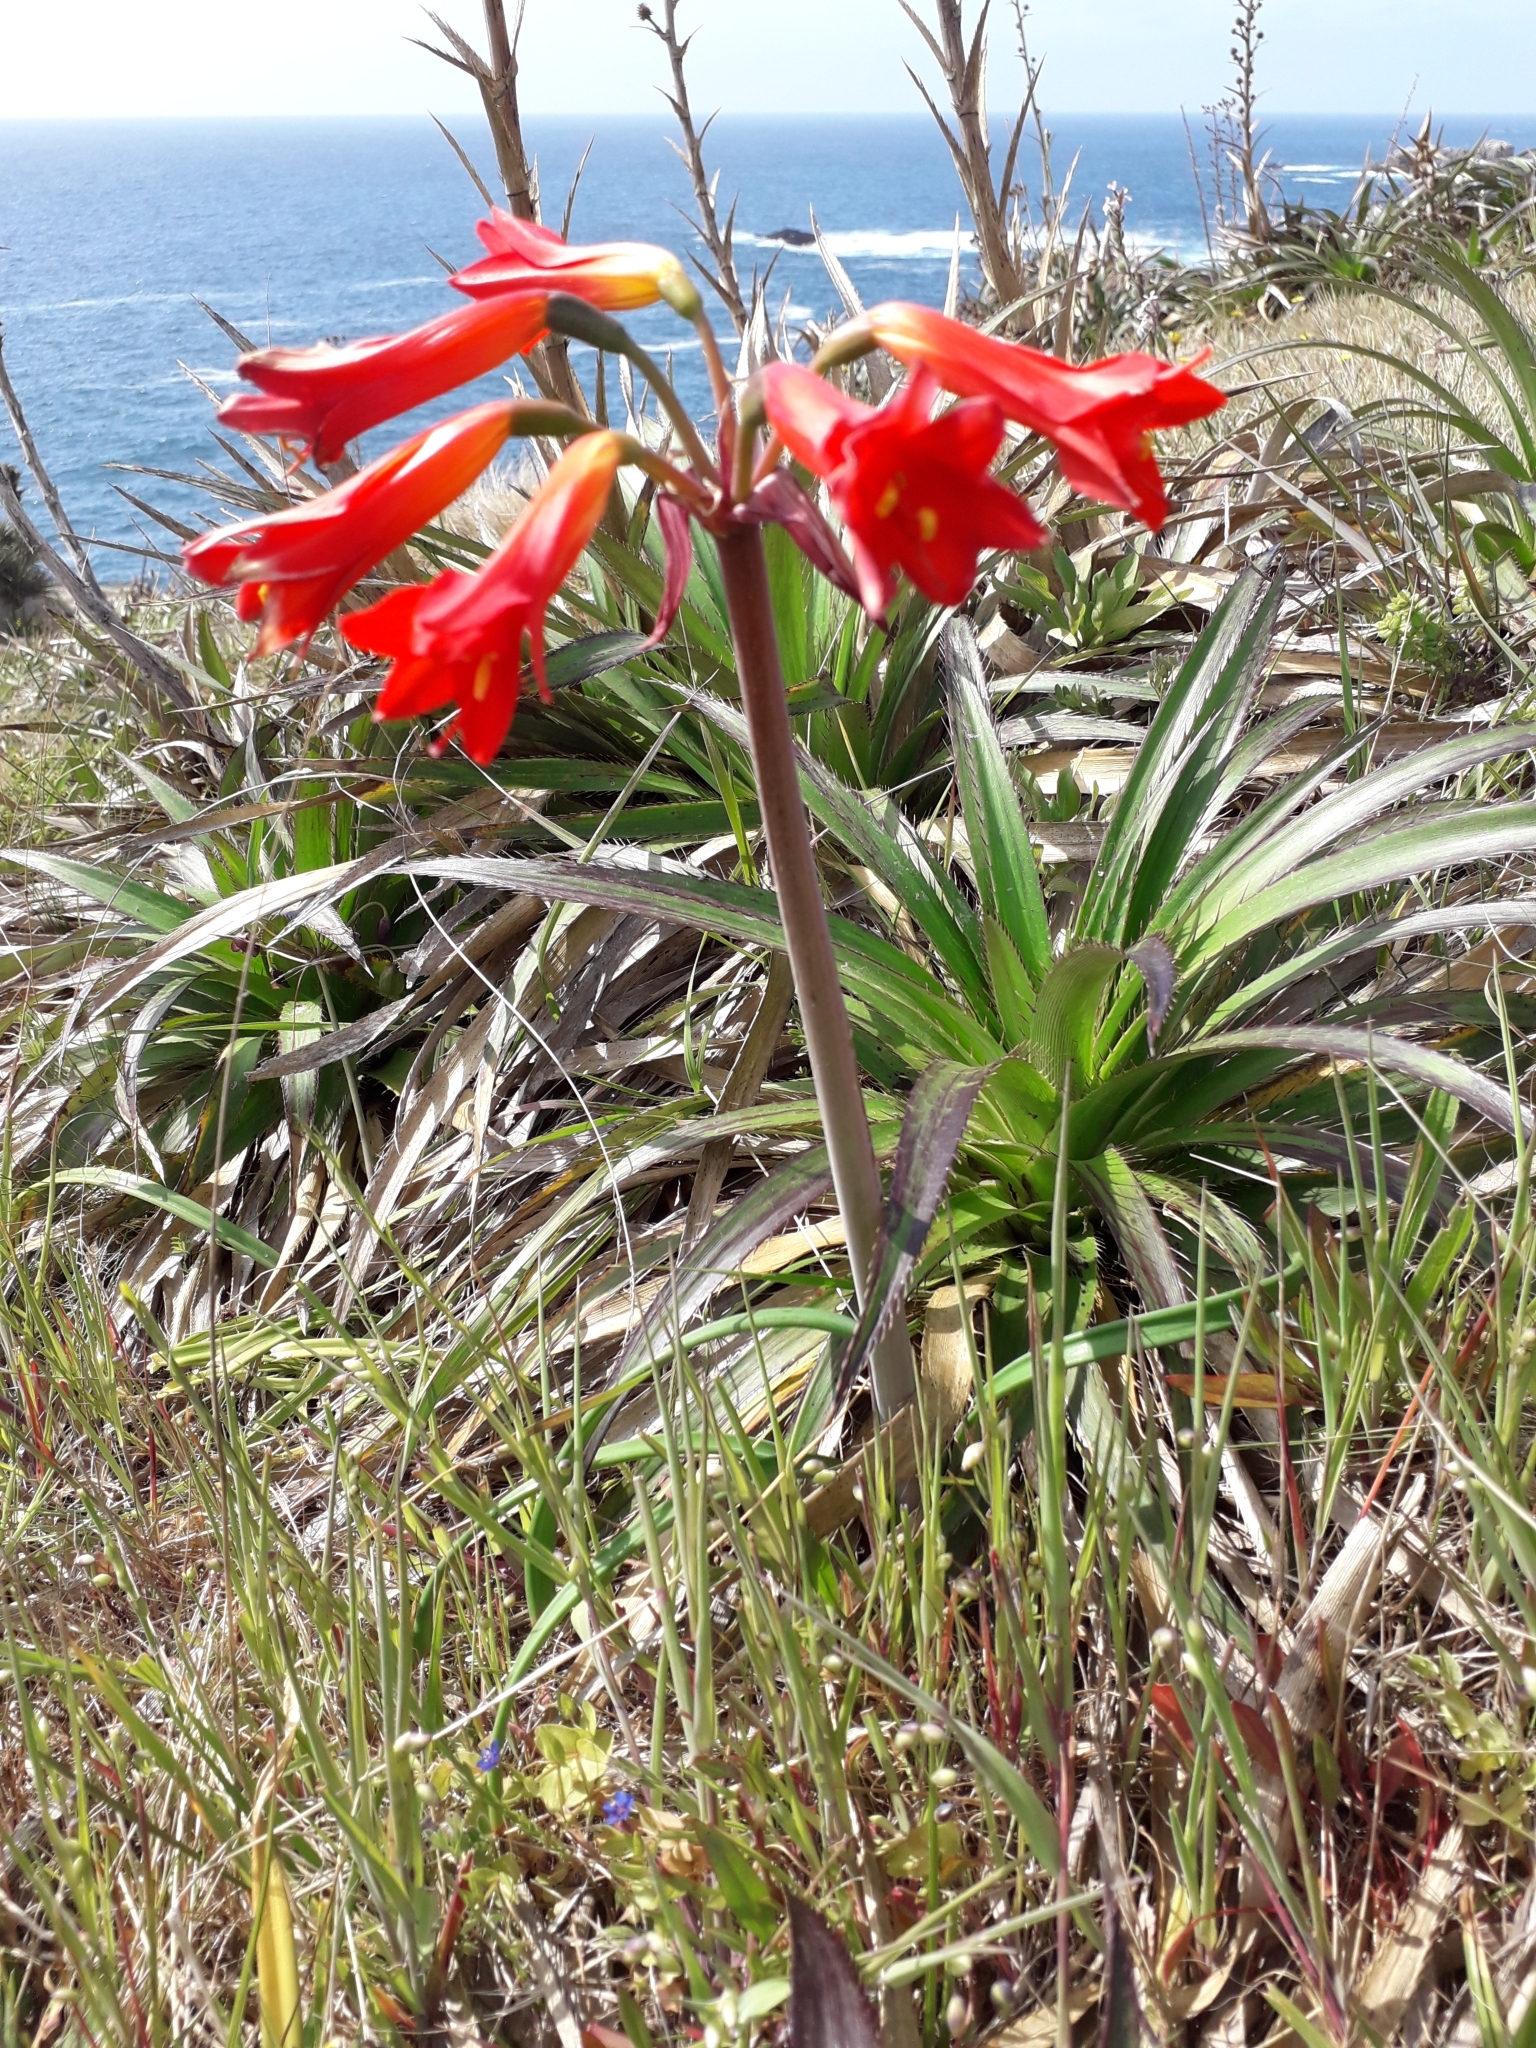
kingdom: Plantae
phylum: Tracheophyta
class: Liliopsida
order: Asparagales
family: Amaryllidaceae
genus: Phycella
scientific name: Phycella australis
